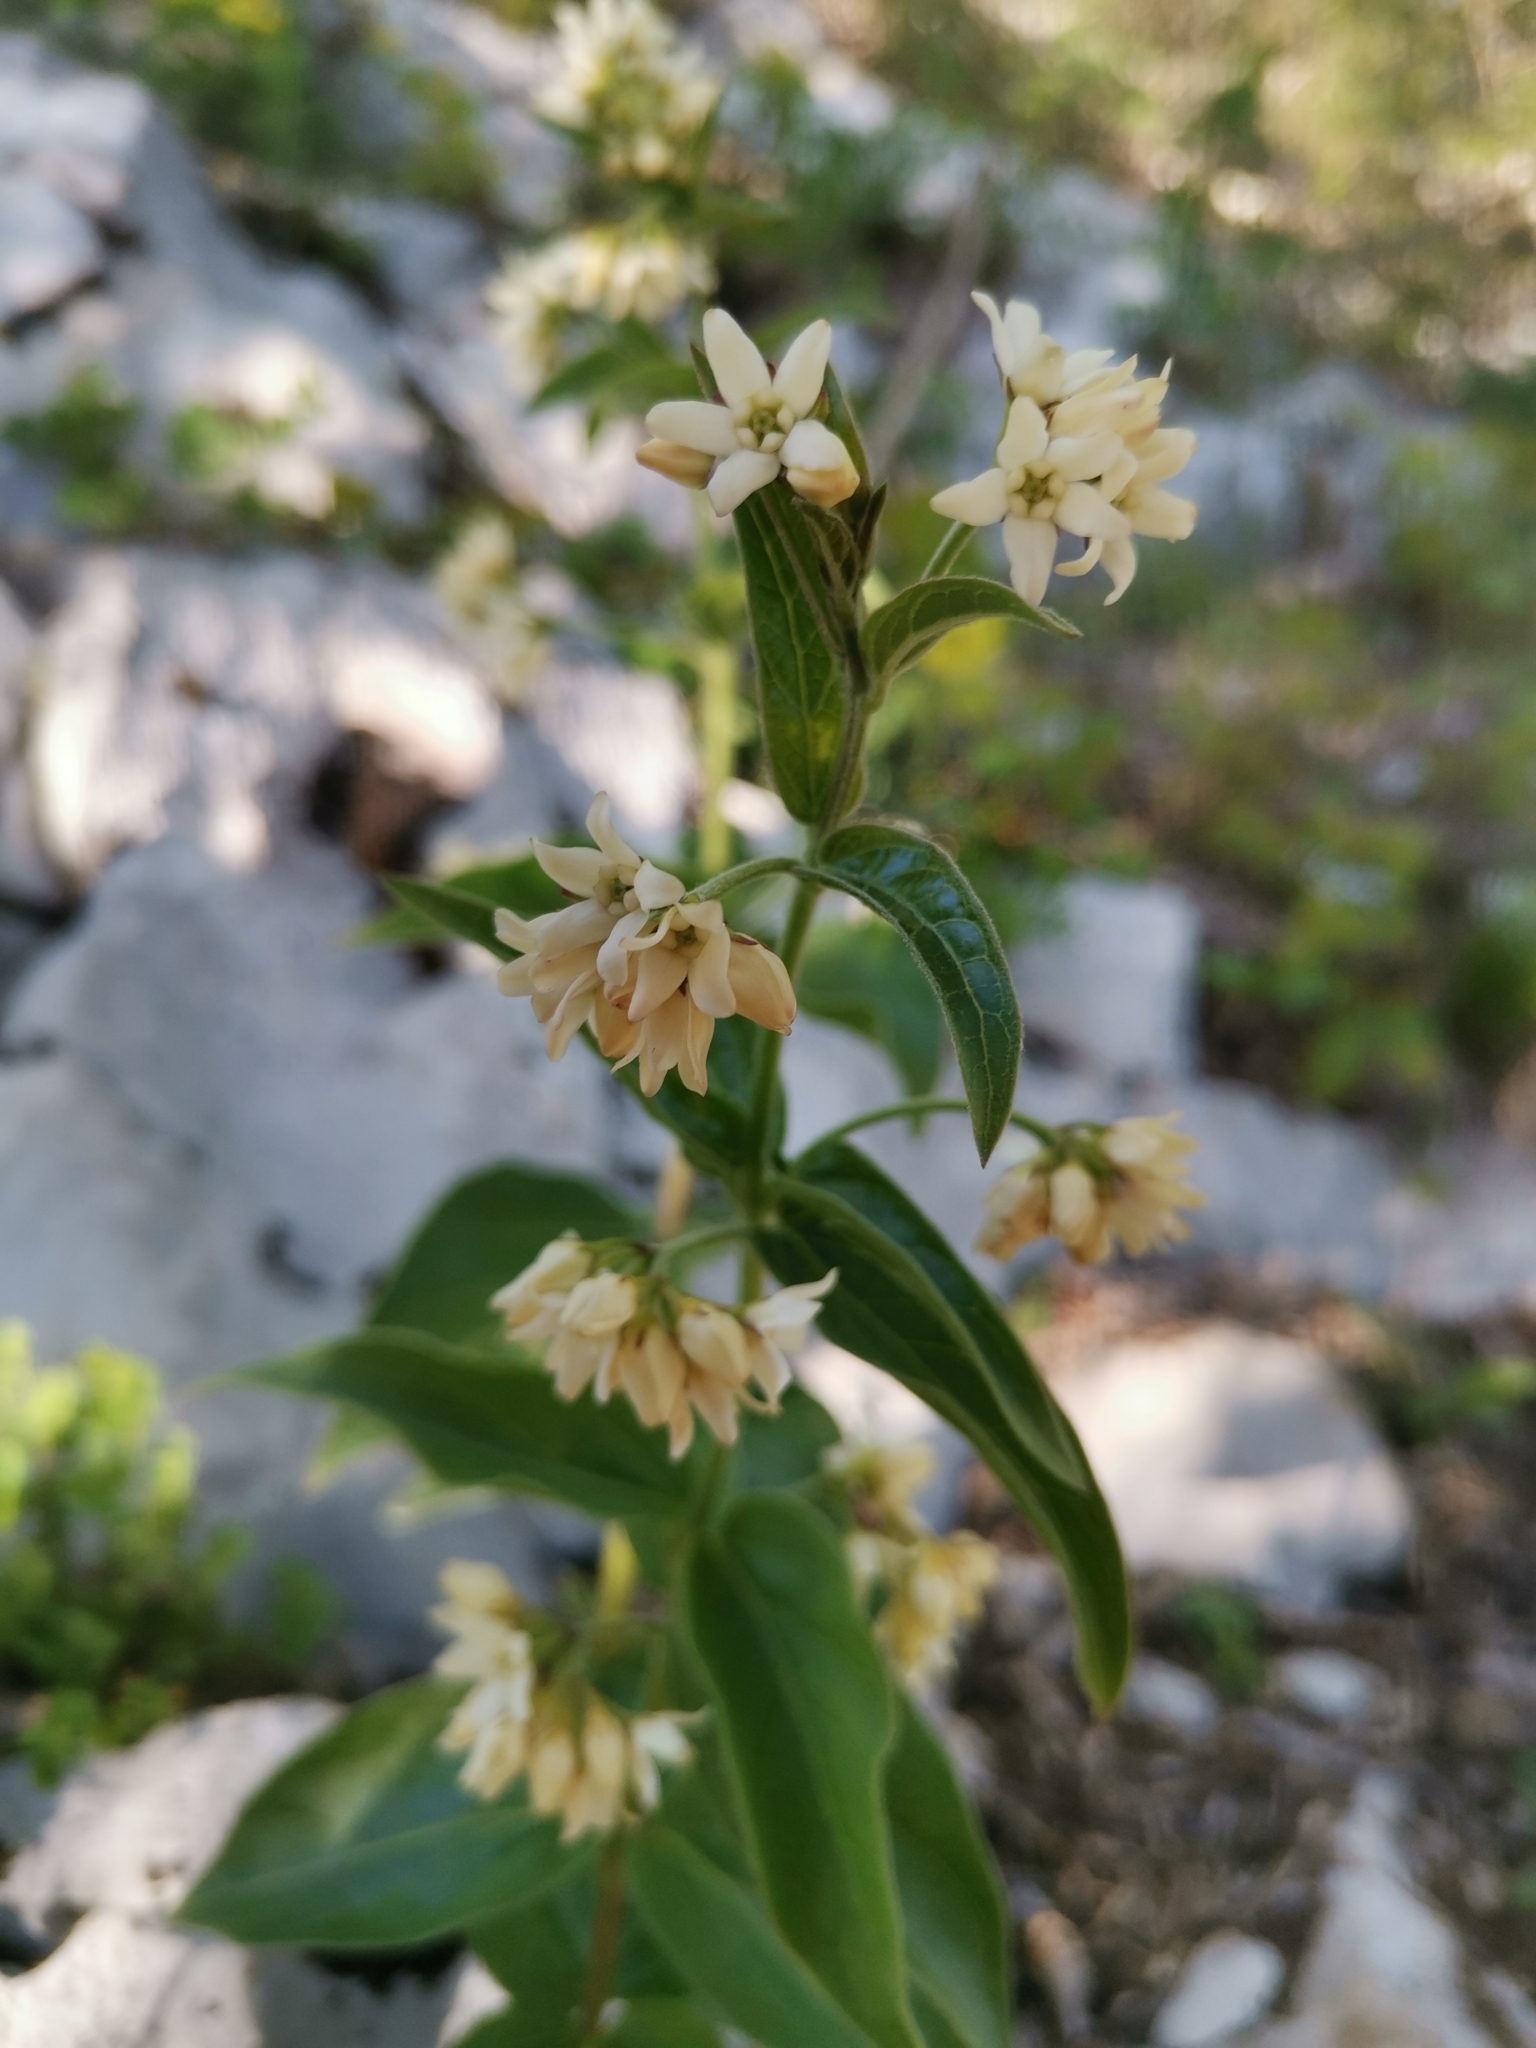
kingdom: Plantae
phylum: Tracheophyta
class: Magnoliopsida
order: Gentianales
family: Apocynaceae
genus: Vincetoxicum
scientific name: Vincetoxicum hirundinaria
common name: White swallowwort
